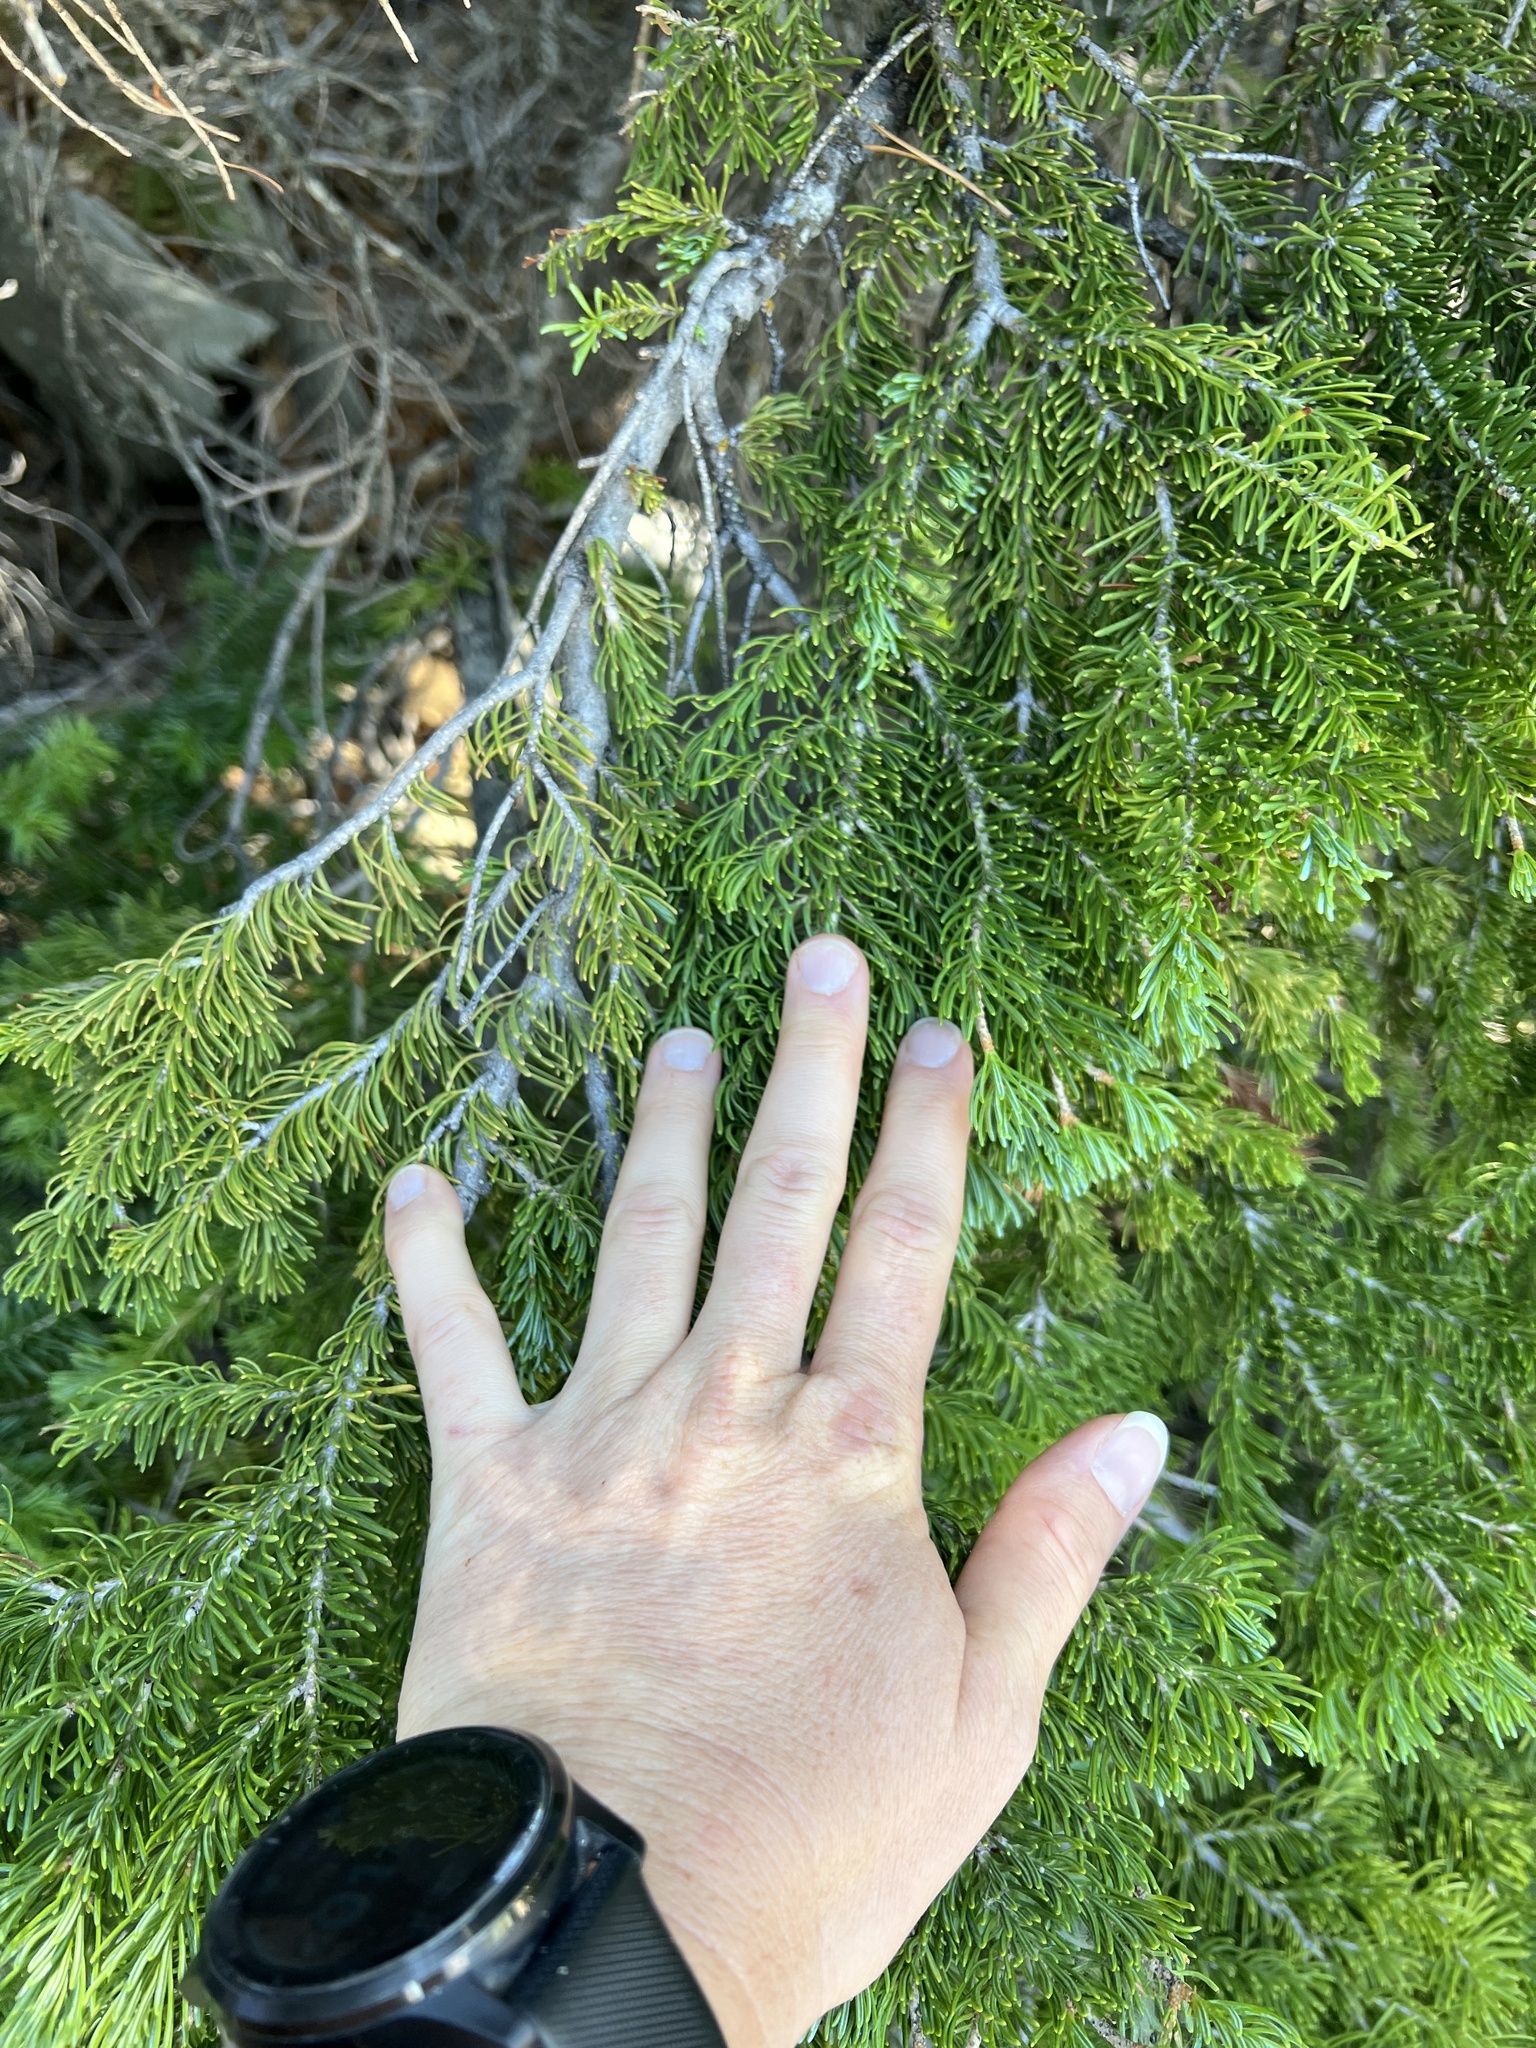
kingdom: Plantae
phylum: Tracheophyta
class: Pinopsida
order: Pinales
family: Pinaceae
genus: Abies
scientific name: Abies lasiocarpa
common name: Subalpine fir
